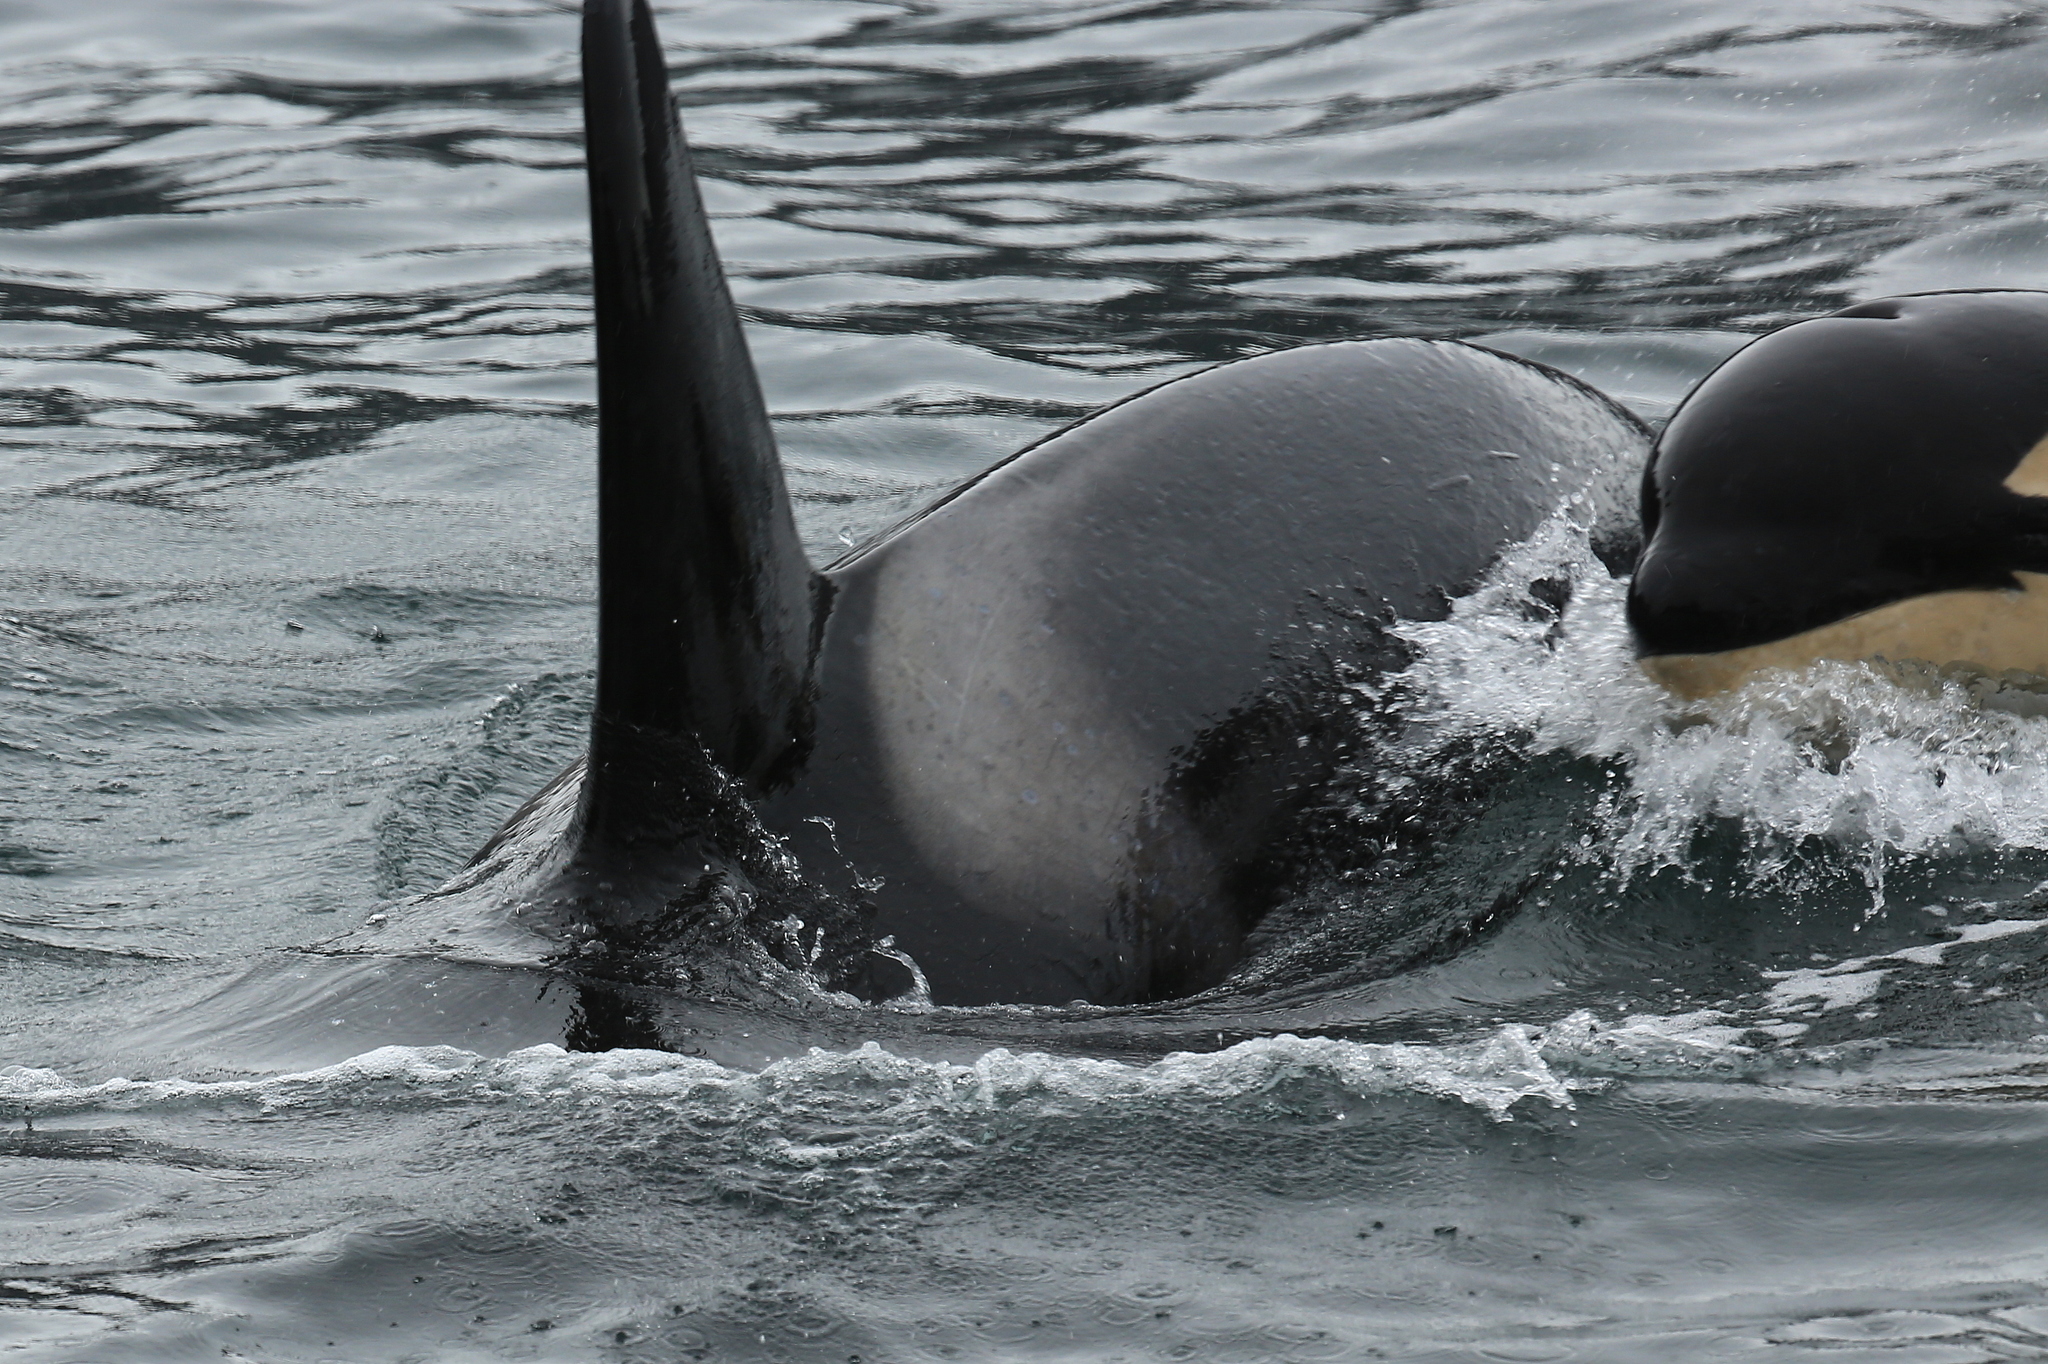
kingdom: Animalia
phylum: Chordata
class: Mammalia
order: Cetacea
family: Delphinidae
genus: Orcinus
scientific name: Orcinus orca
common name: Killer whale
